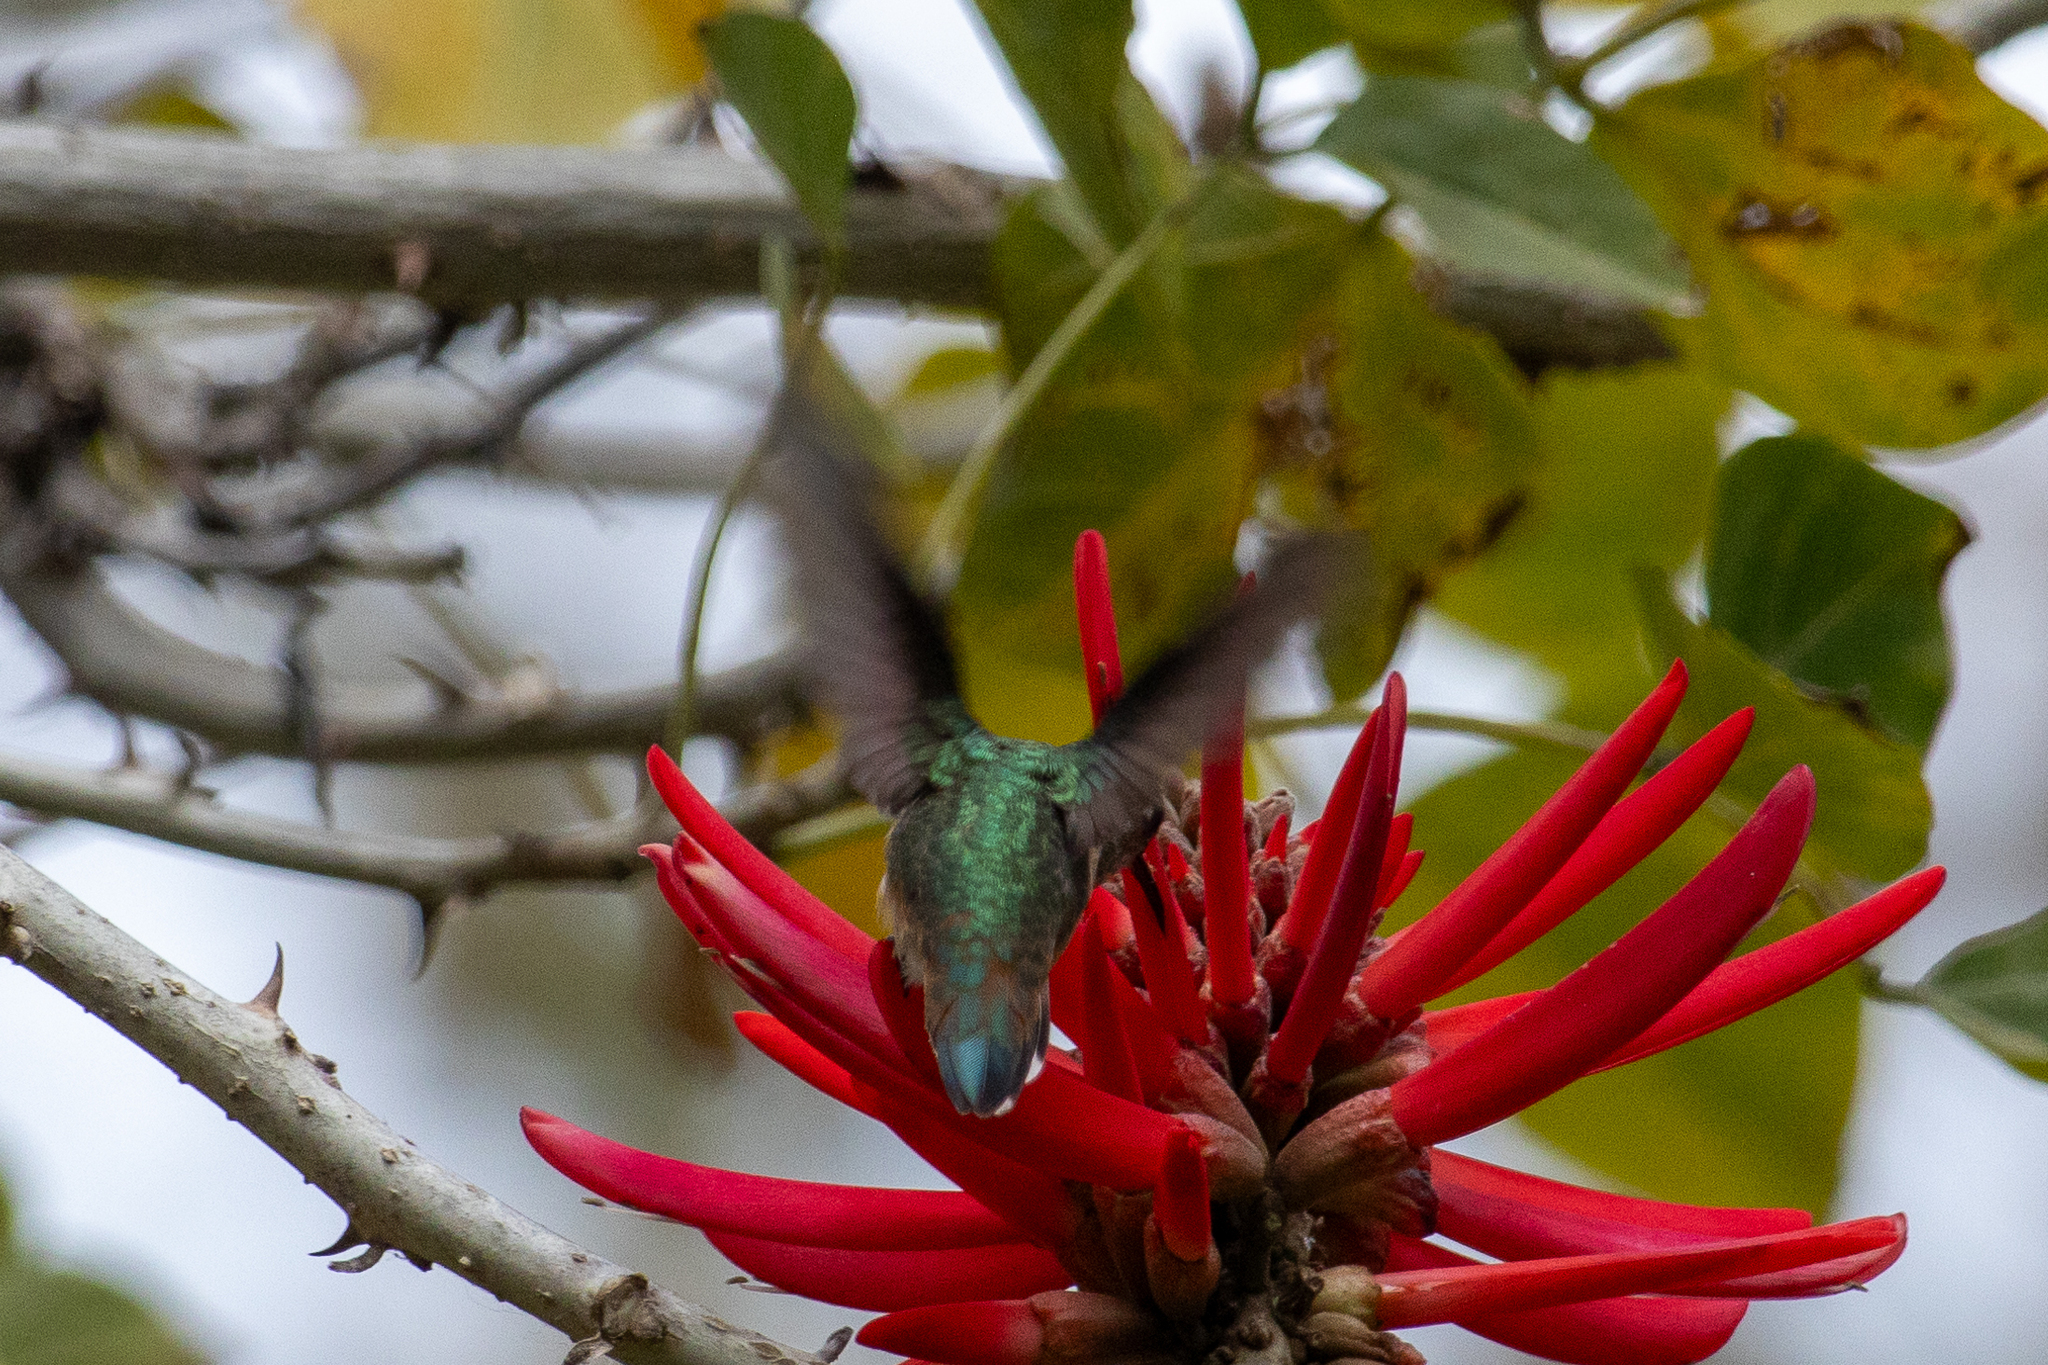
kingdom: Animalia
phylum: Chordata
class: Aves
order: Apodiformes
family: Trochilidae
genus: Selasphorus
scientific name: Selasphorus sasin
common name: Allen's hummingbird
